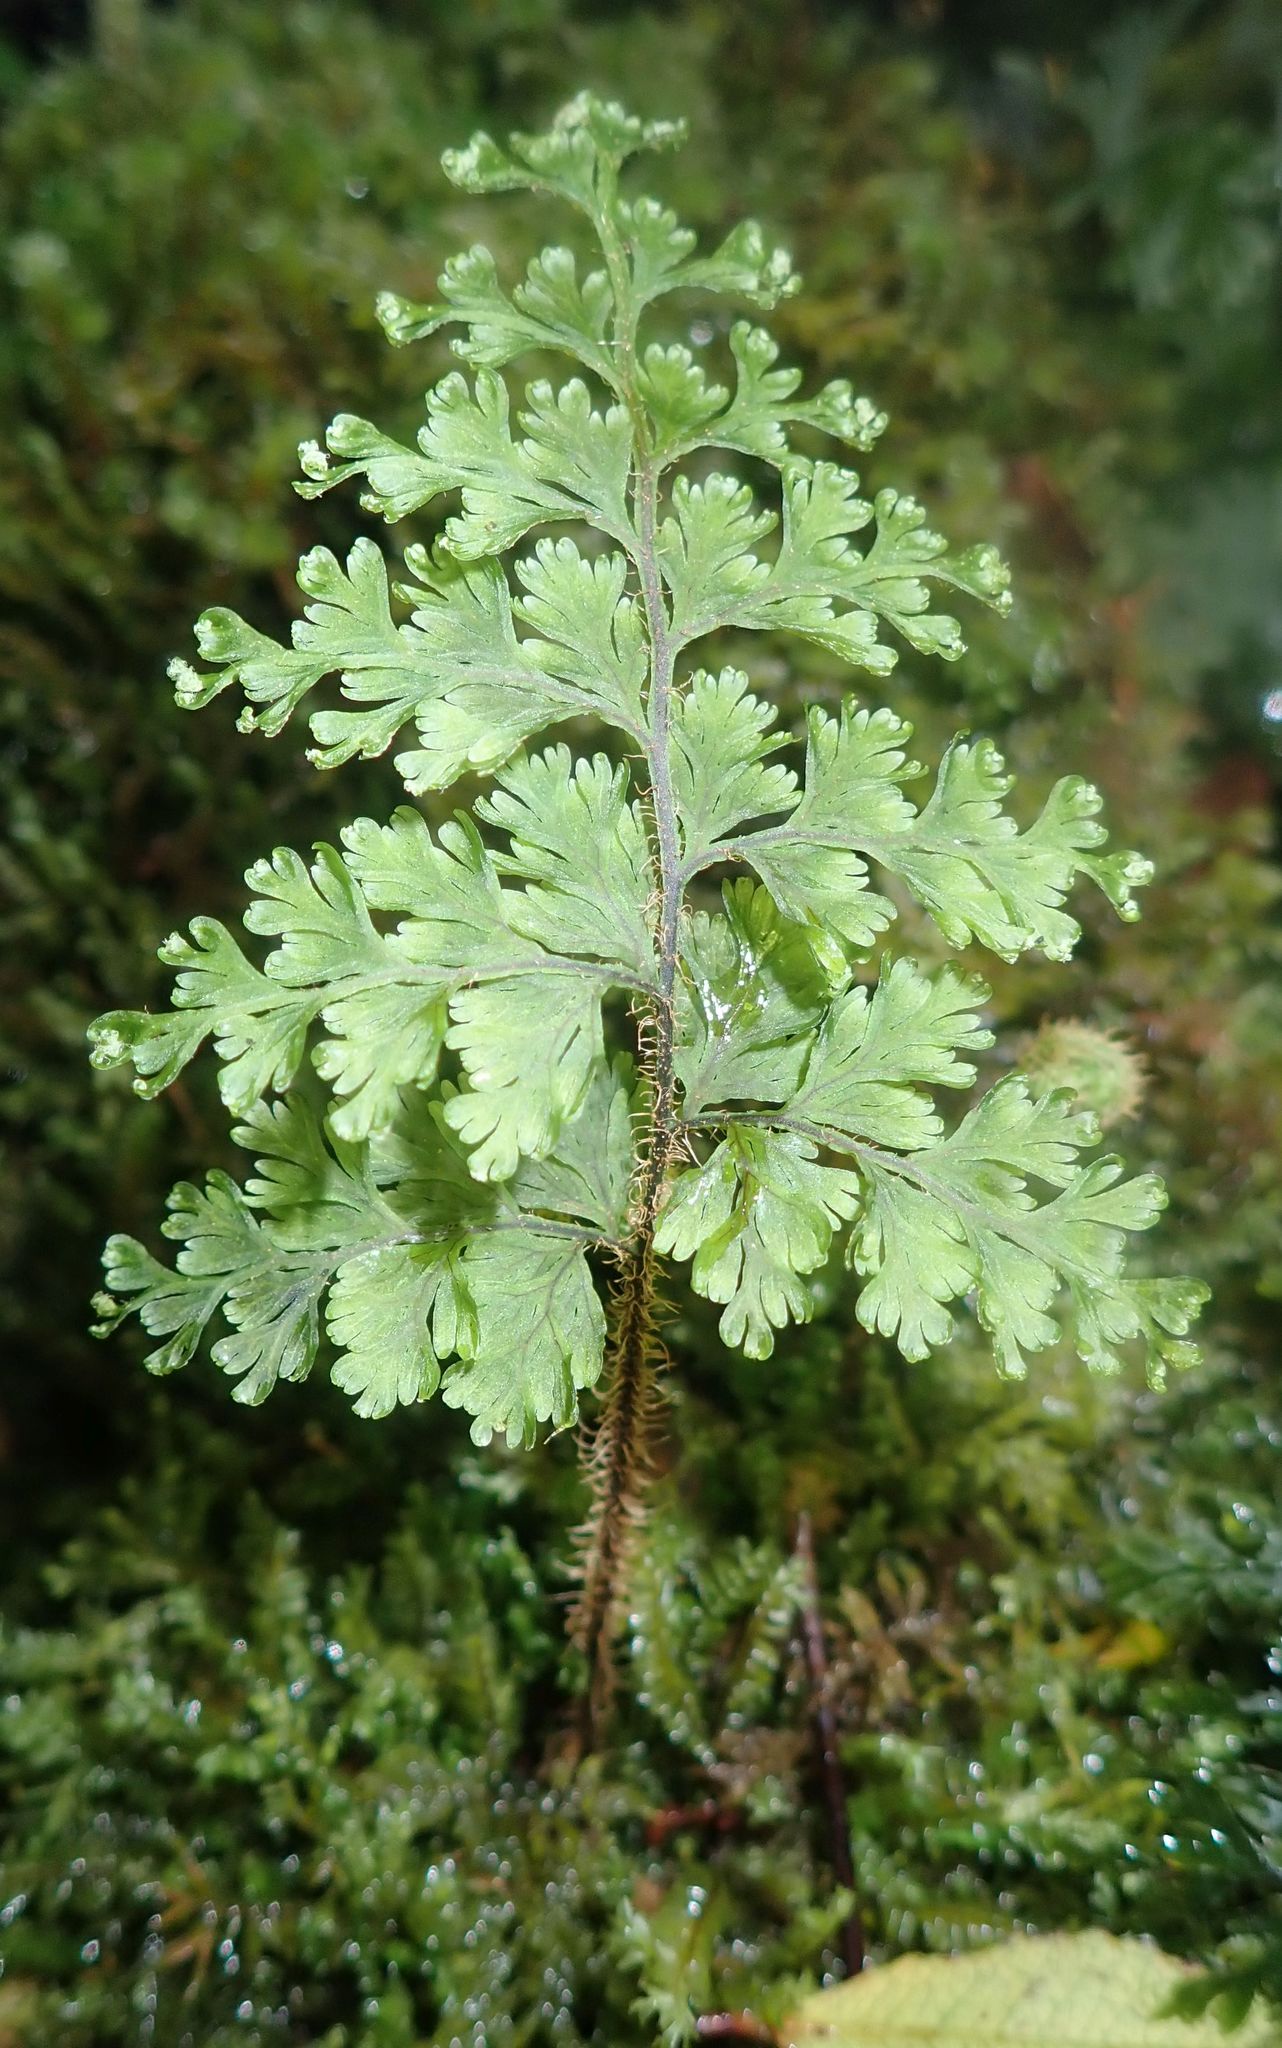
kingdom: Plantae
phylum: Tracheophyta
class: Polypodiopsida
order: Hymenophyllales
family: Hymenophyllaceae
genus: Hymenophyllum
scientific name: Hymenophyllum scabrum
